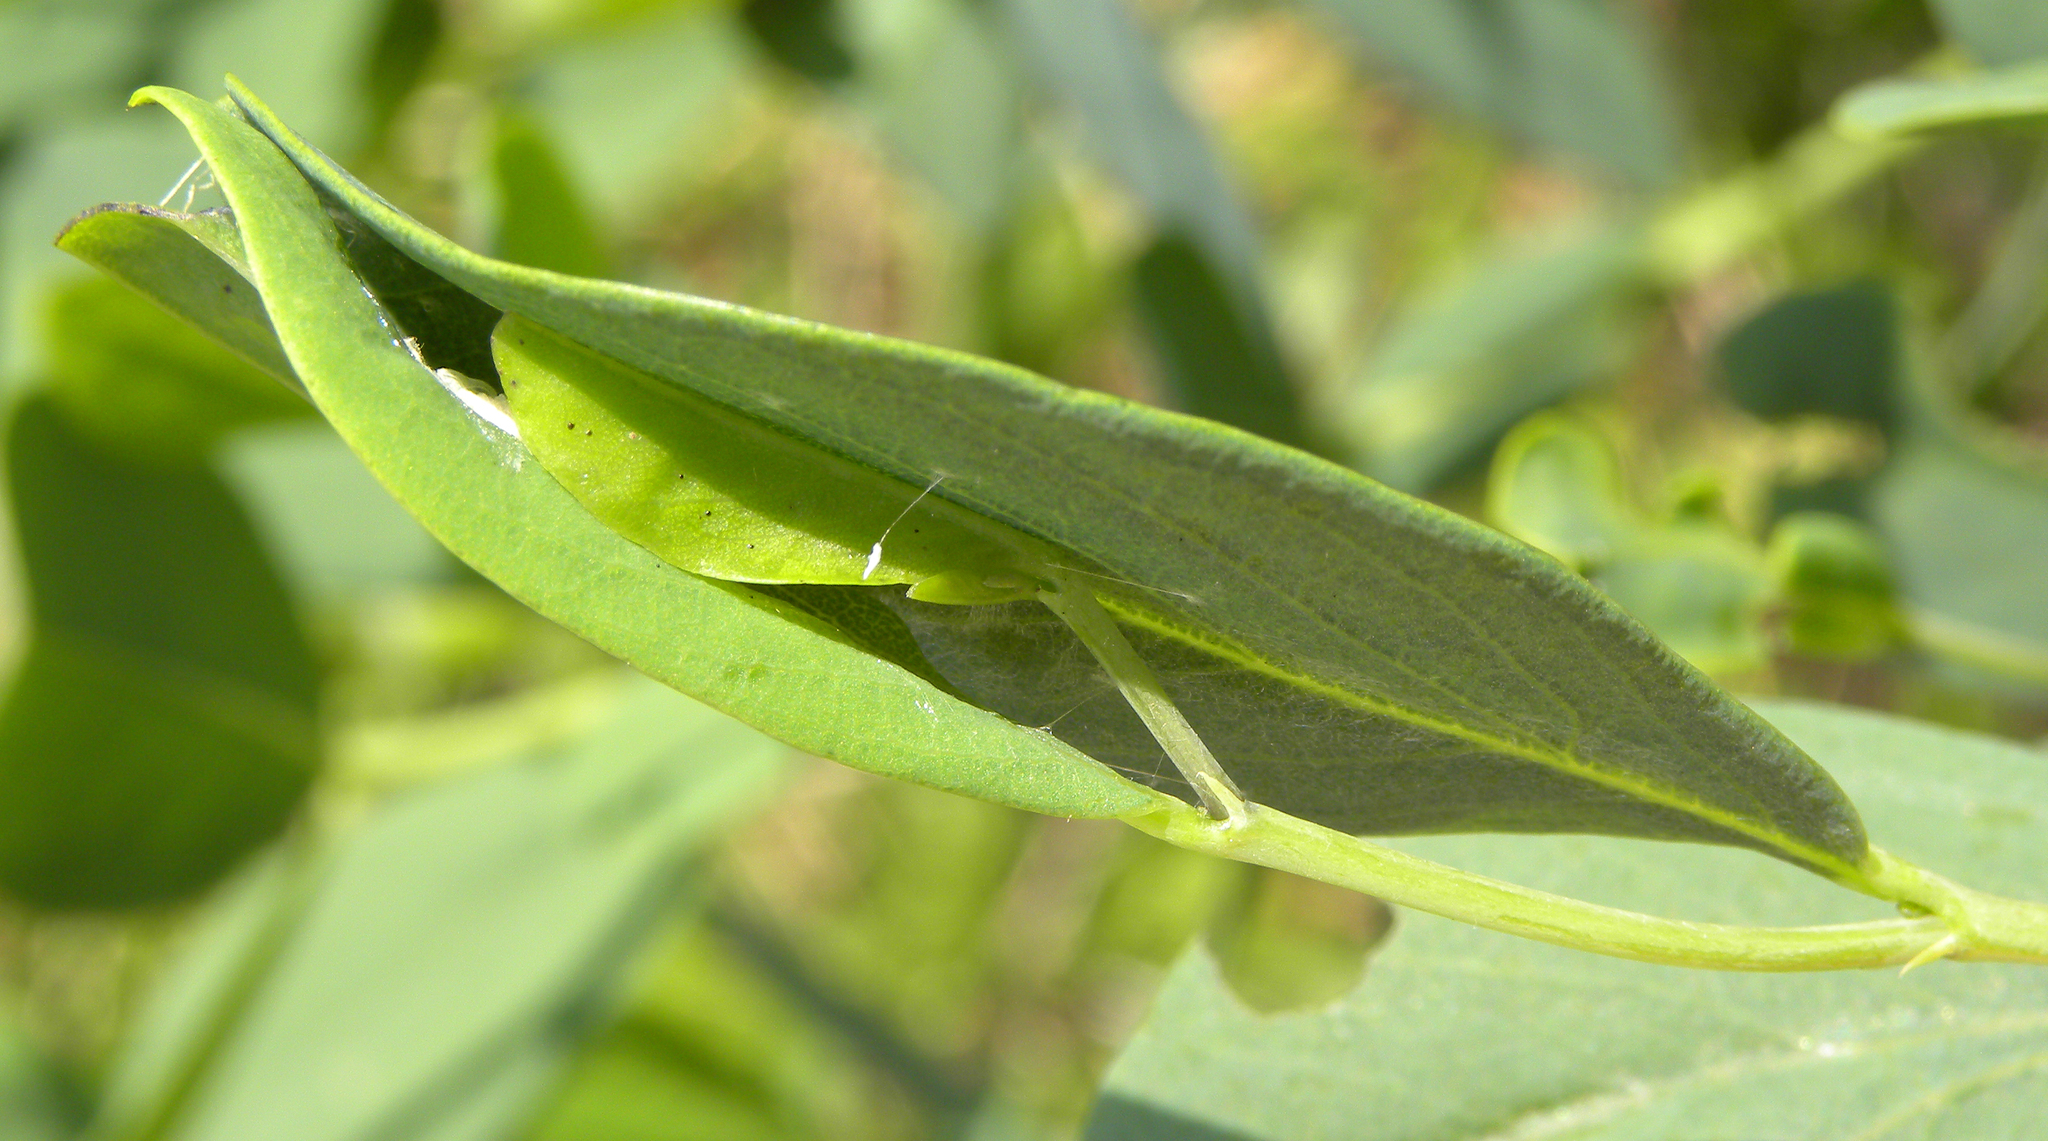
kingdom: Animalia
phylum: Arthropoda
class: Insecta
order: Lepidoptera
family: Hesperiidae
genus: Erynnis
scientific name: Erynnis baptisiae
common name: Wild indigo duskywing
